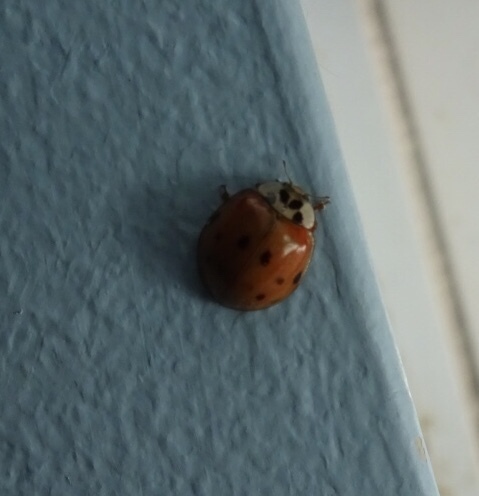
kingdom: Animalia
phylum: Arthropoda
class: Insecta
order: Coleoptera
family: Coccinellidae
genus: Harmonia
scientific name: Harmonia axyridis
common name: Harlequin ladybird
